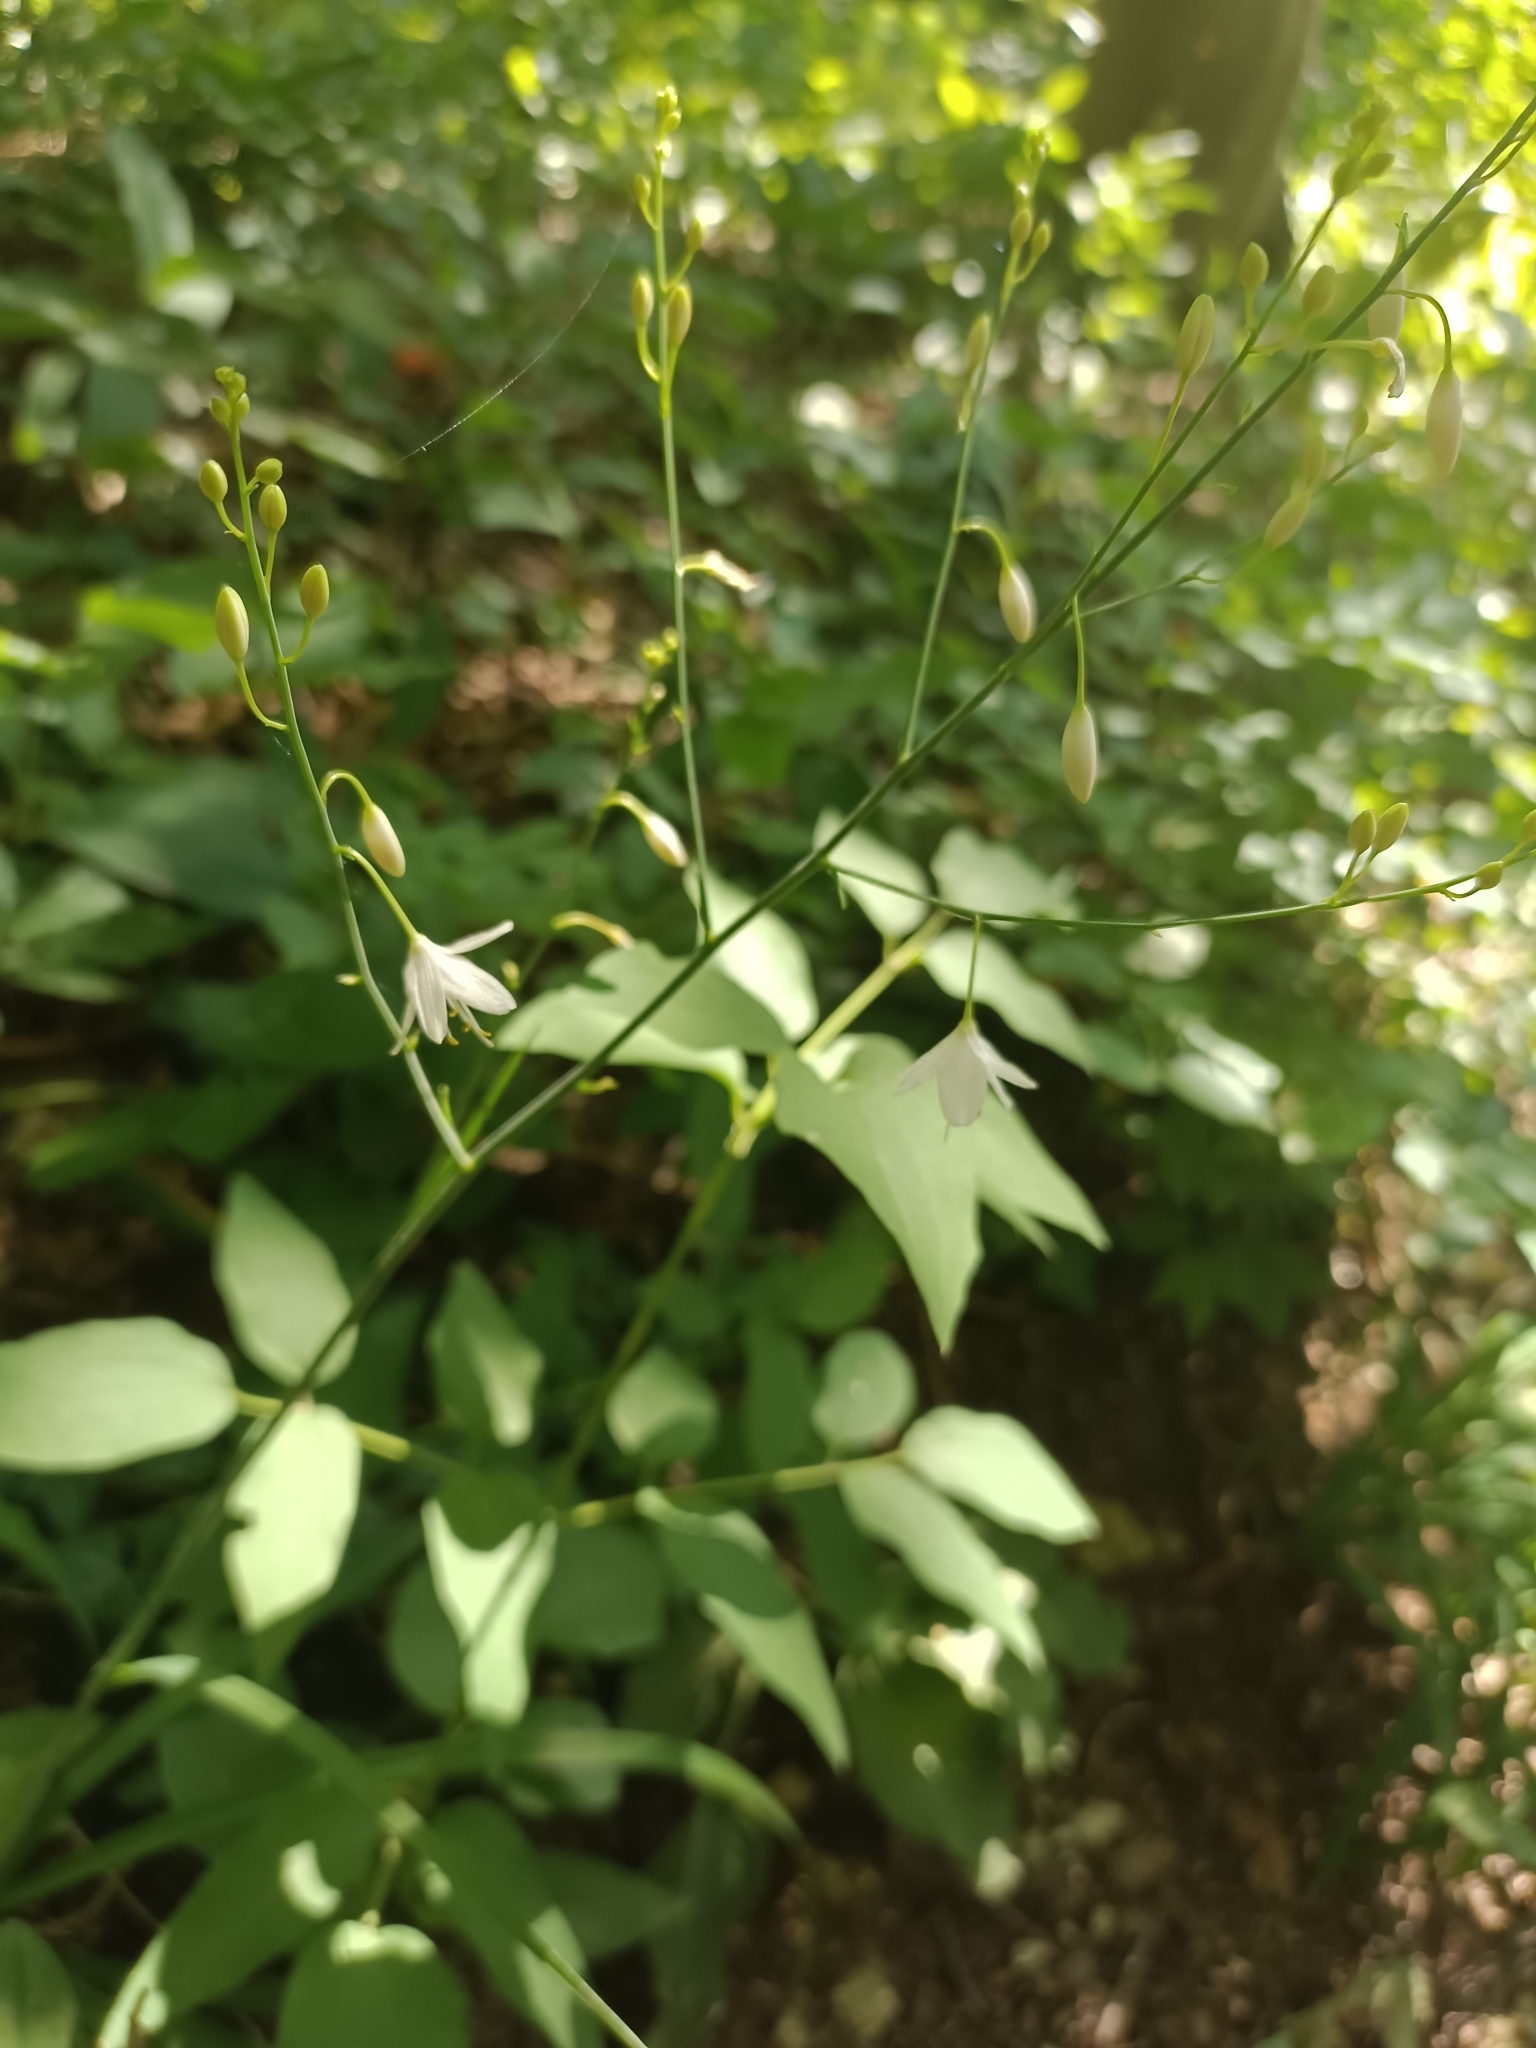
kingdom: Plantae
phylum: Tracheophyta
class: Liliopsida
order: Asparagales
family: Asparagaceae
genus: Anthericum
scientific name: Anthericum ramosum
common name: Branched st. bernard's-lily
